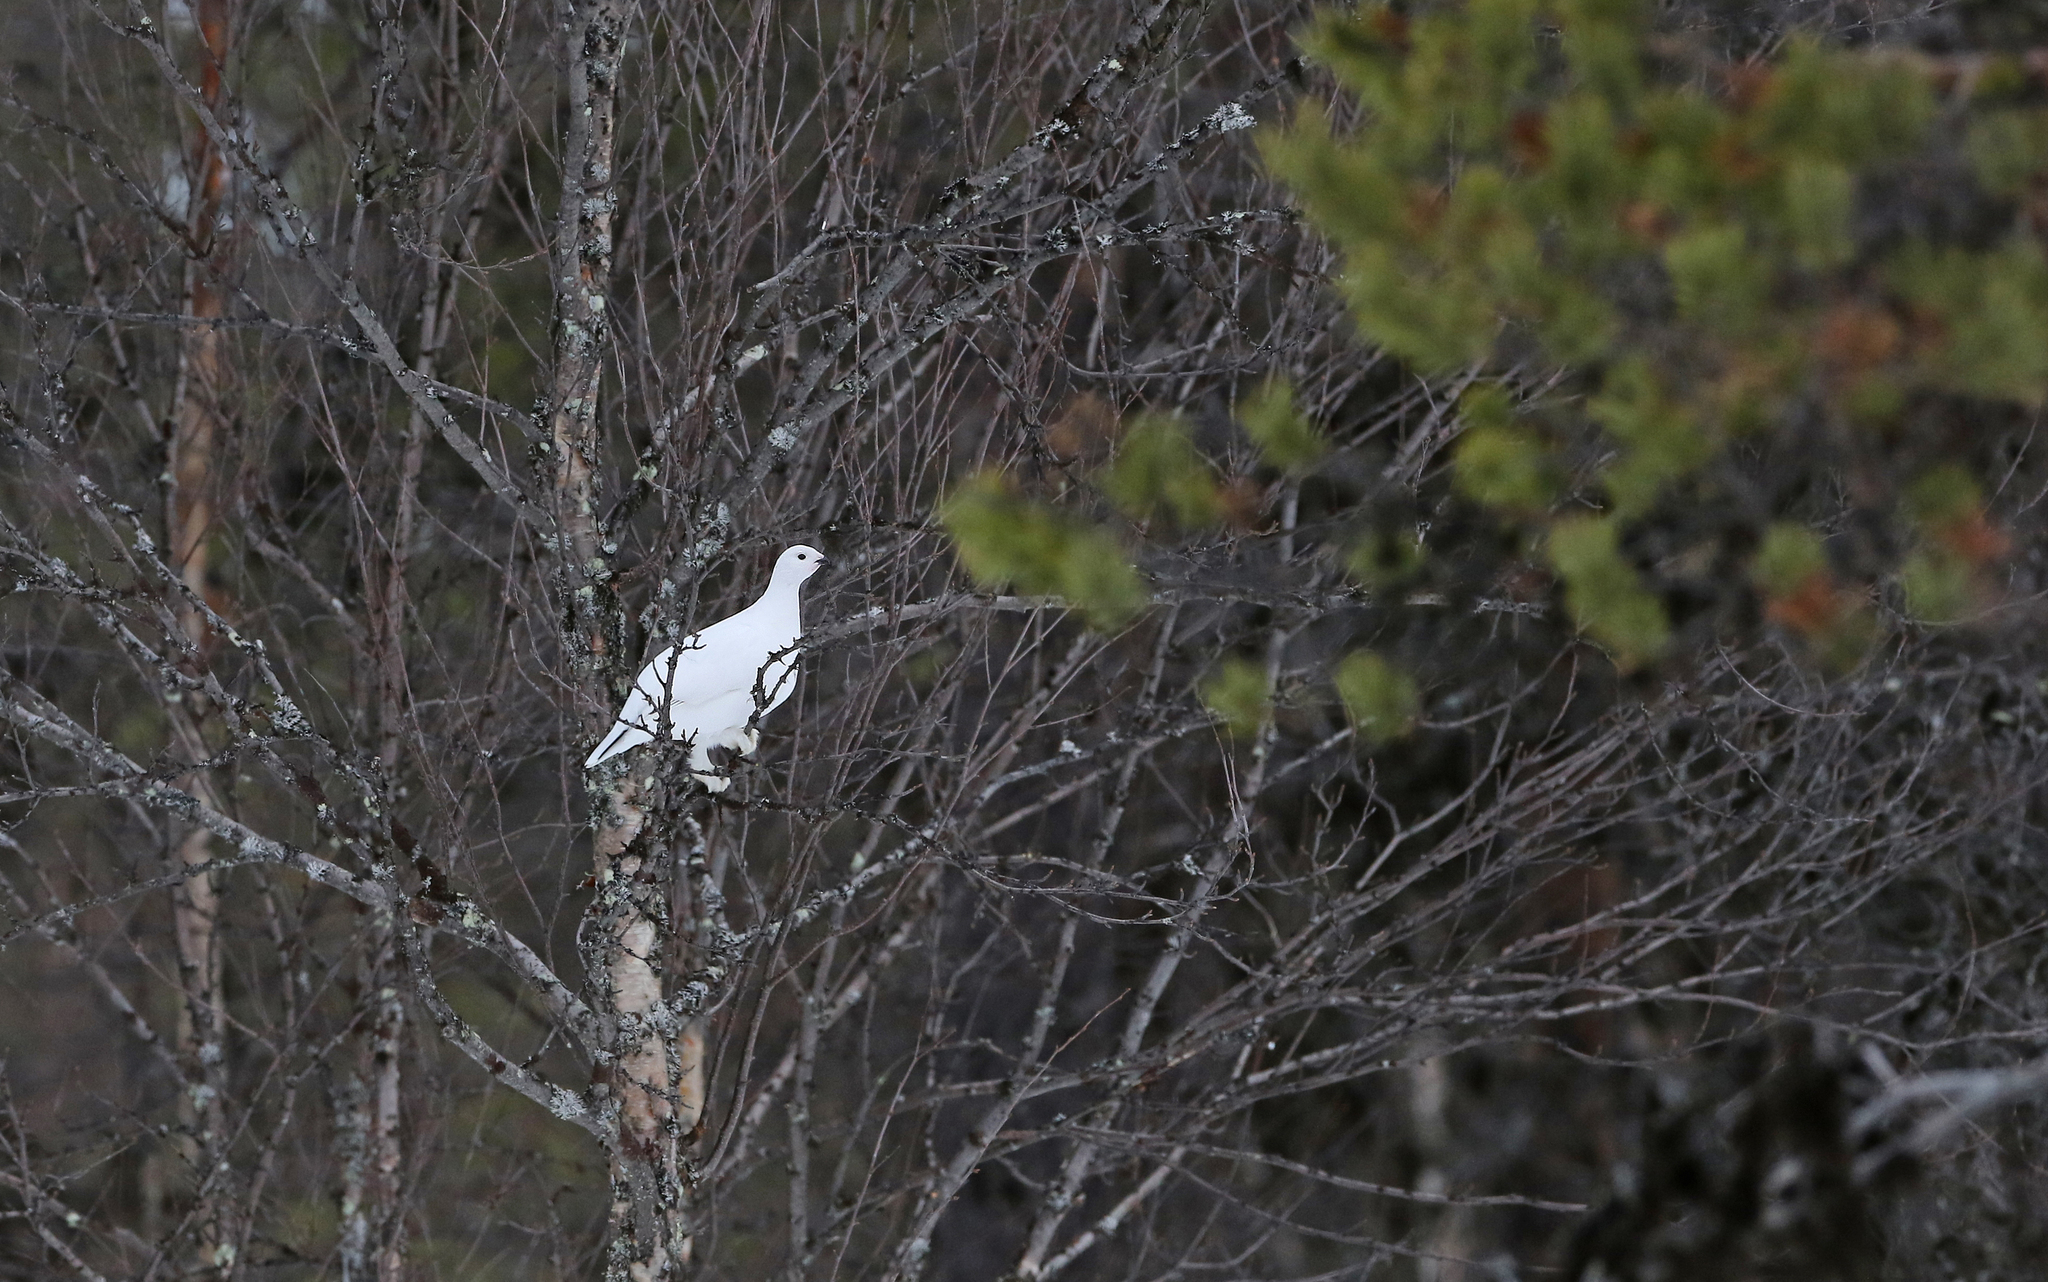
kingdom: Animalia
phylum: Chordata
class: Aves
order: Galliformes
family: Phasianidae
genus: Lagopus
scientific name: Lagopus lagopus
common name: Willow ptarmigan
